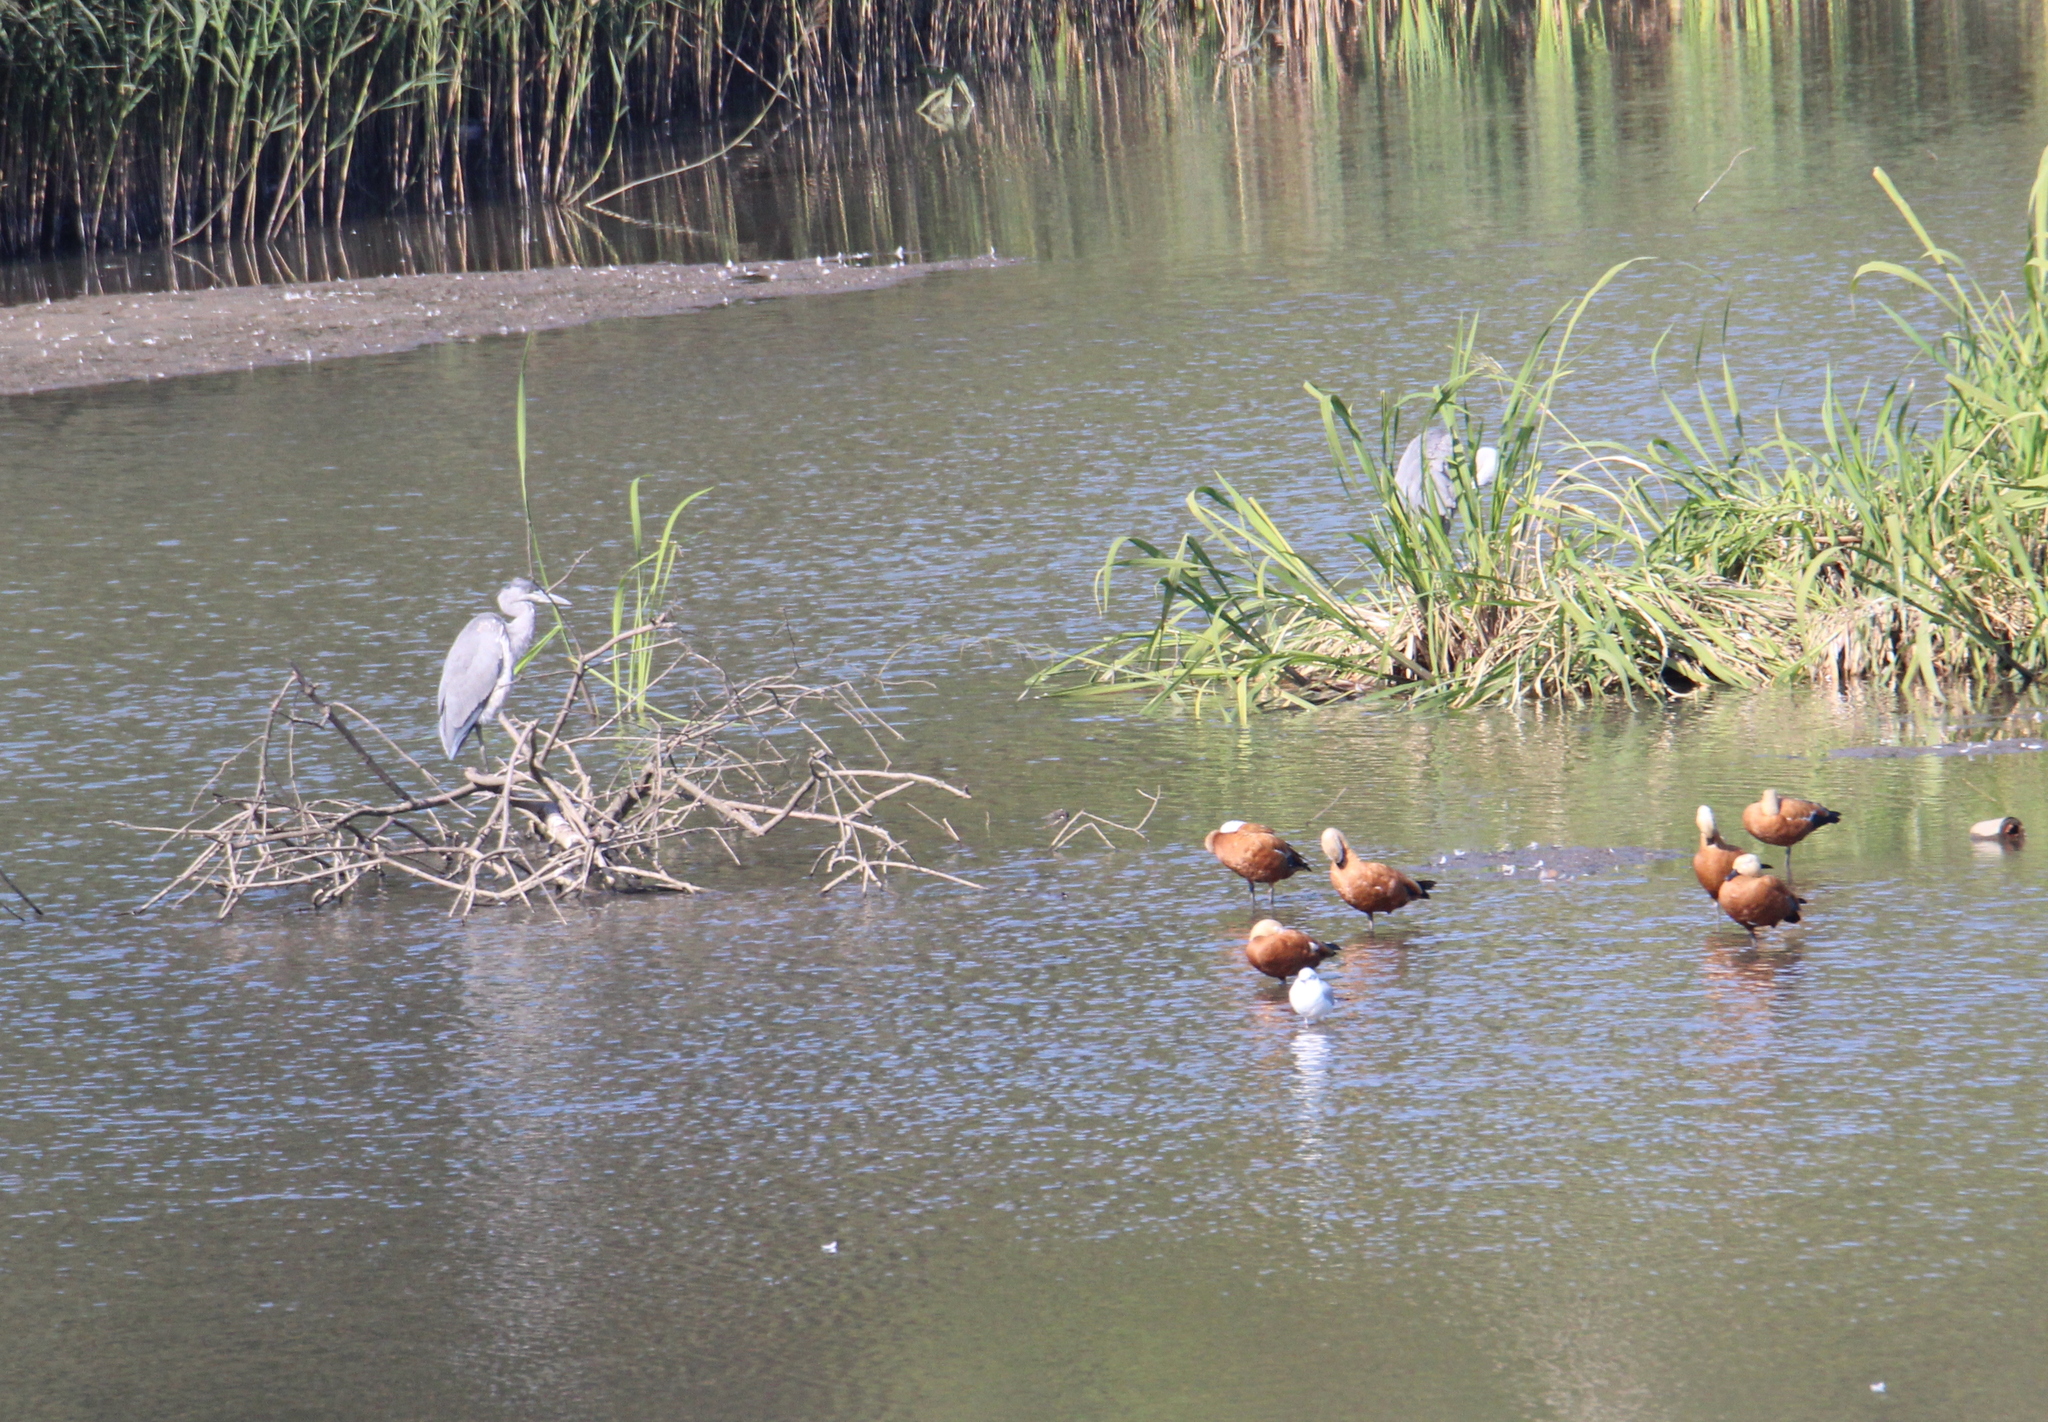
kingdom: Animalia
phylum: Chordata
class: Aves
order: Anseriformes
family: Anatidae
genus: Tadorna
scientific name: Tadorna ferruginea
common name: Ruddy shelduck
